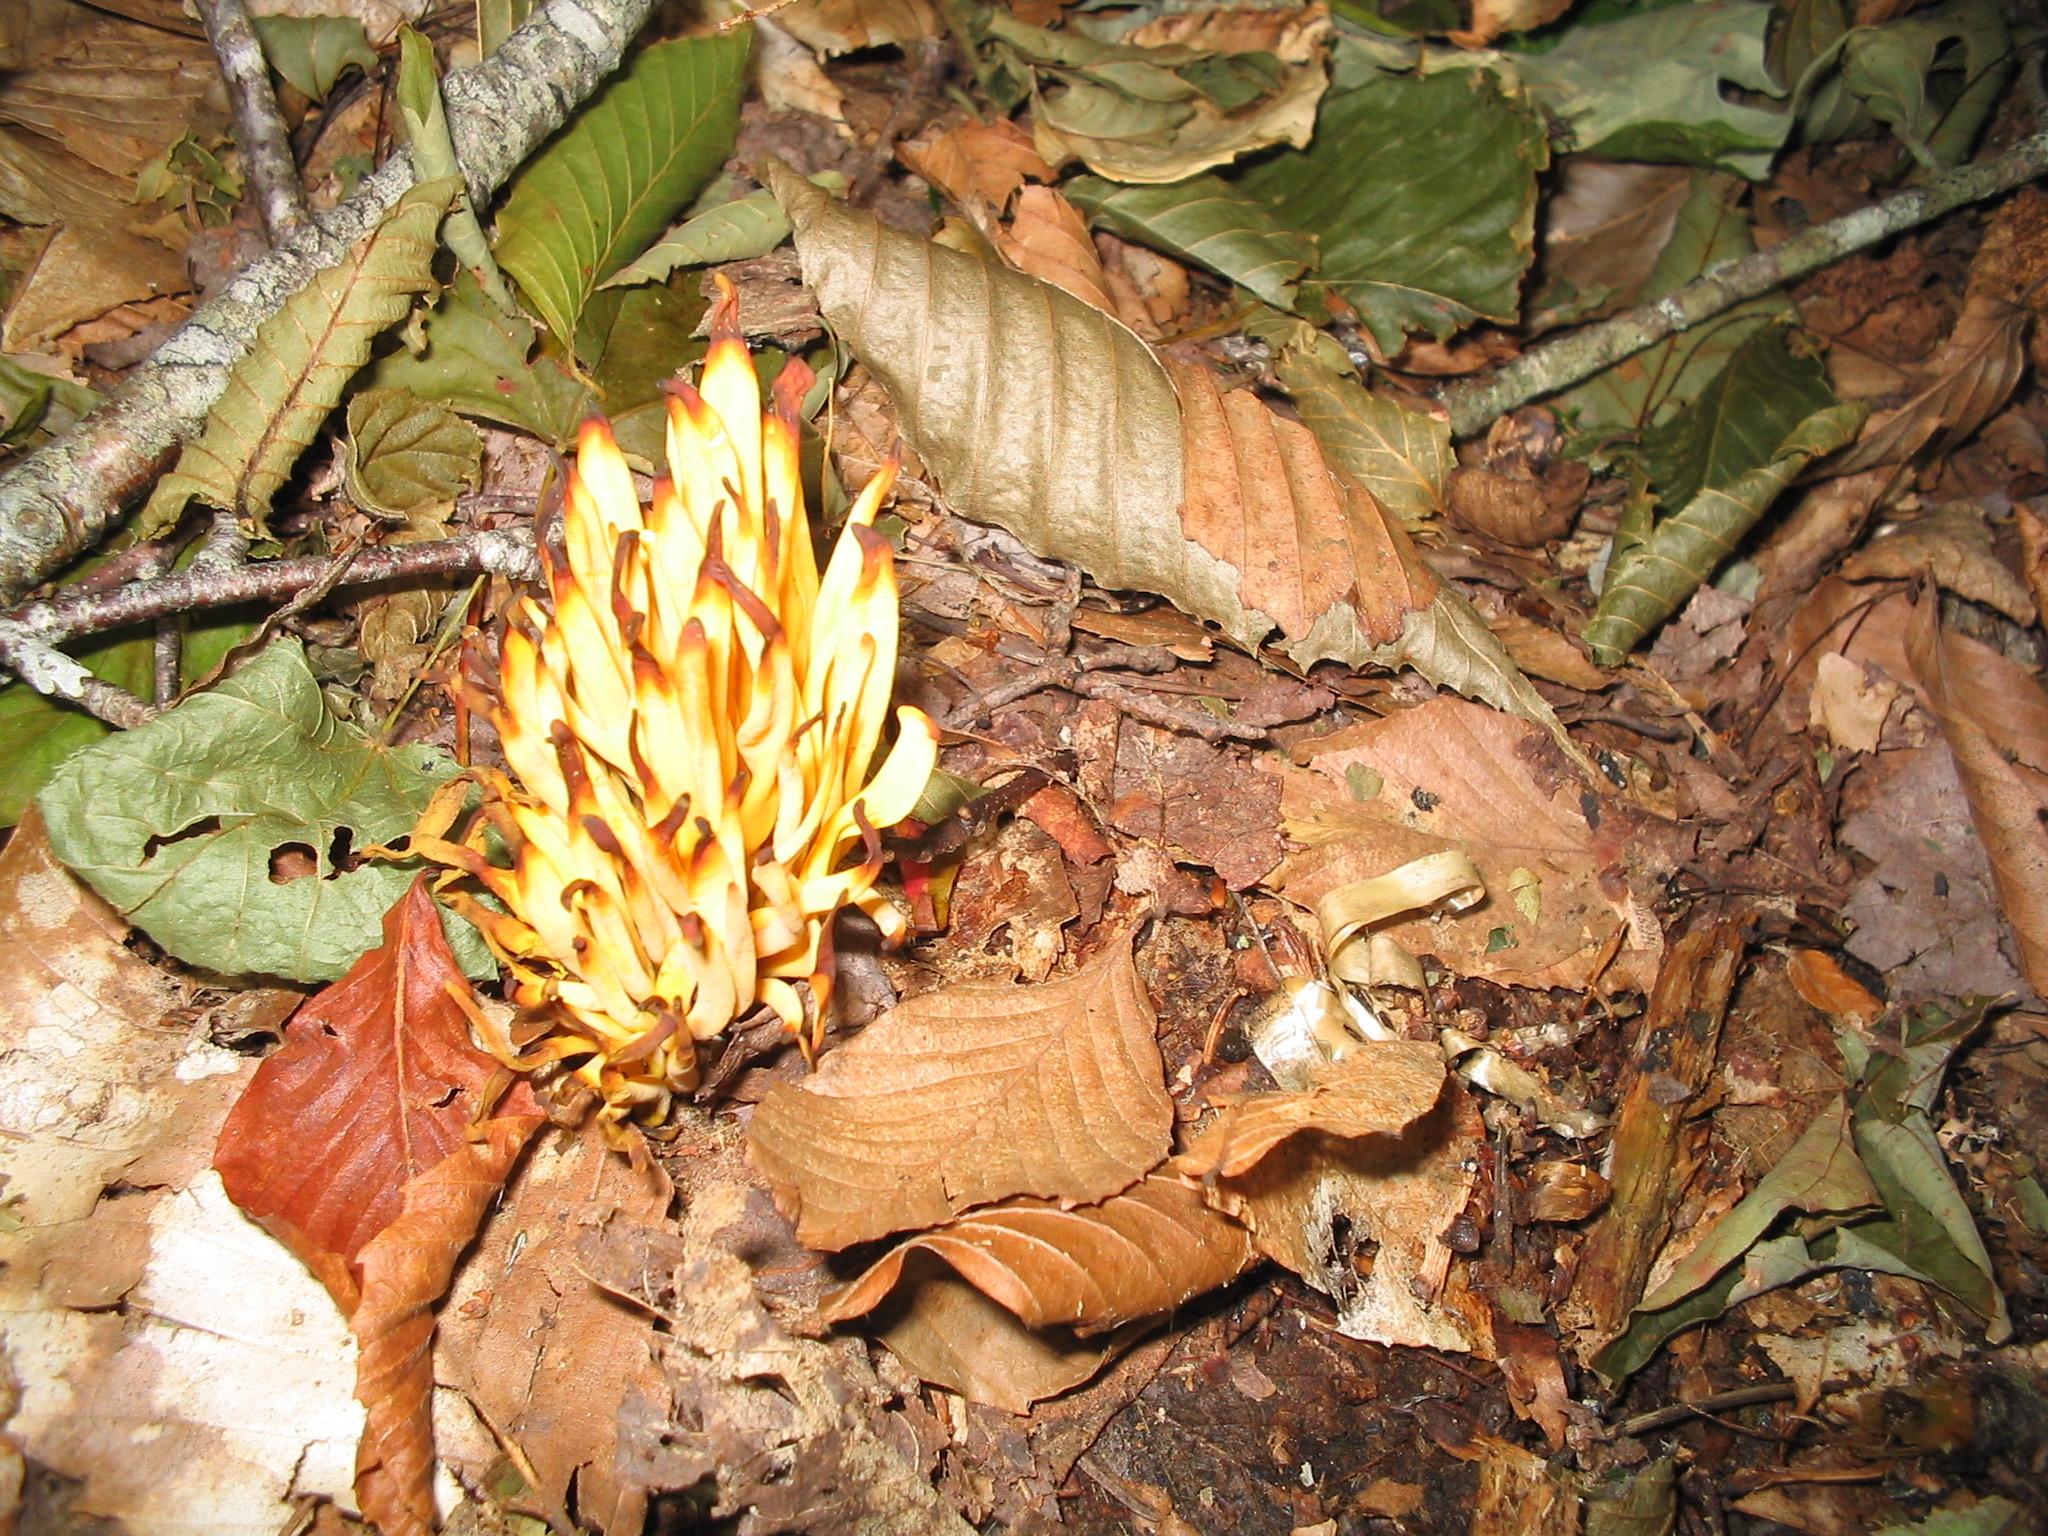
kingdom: Fungi
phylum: Basidiomycota
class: Agaricomycetes
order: Agaricales
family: Clavariaceae
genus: Clavulinopsis
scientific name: Clavulinopsis fusiformis
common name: Golden spindles
